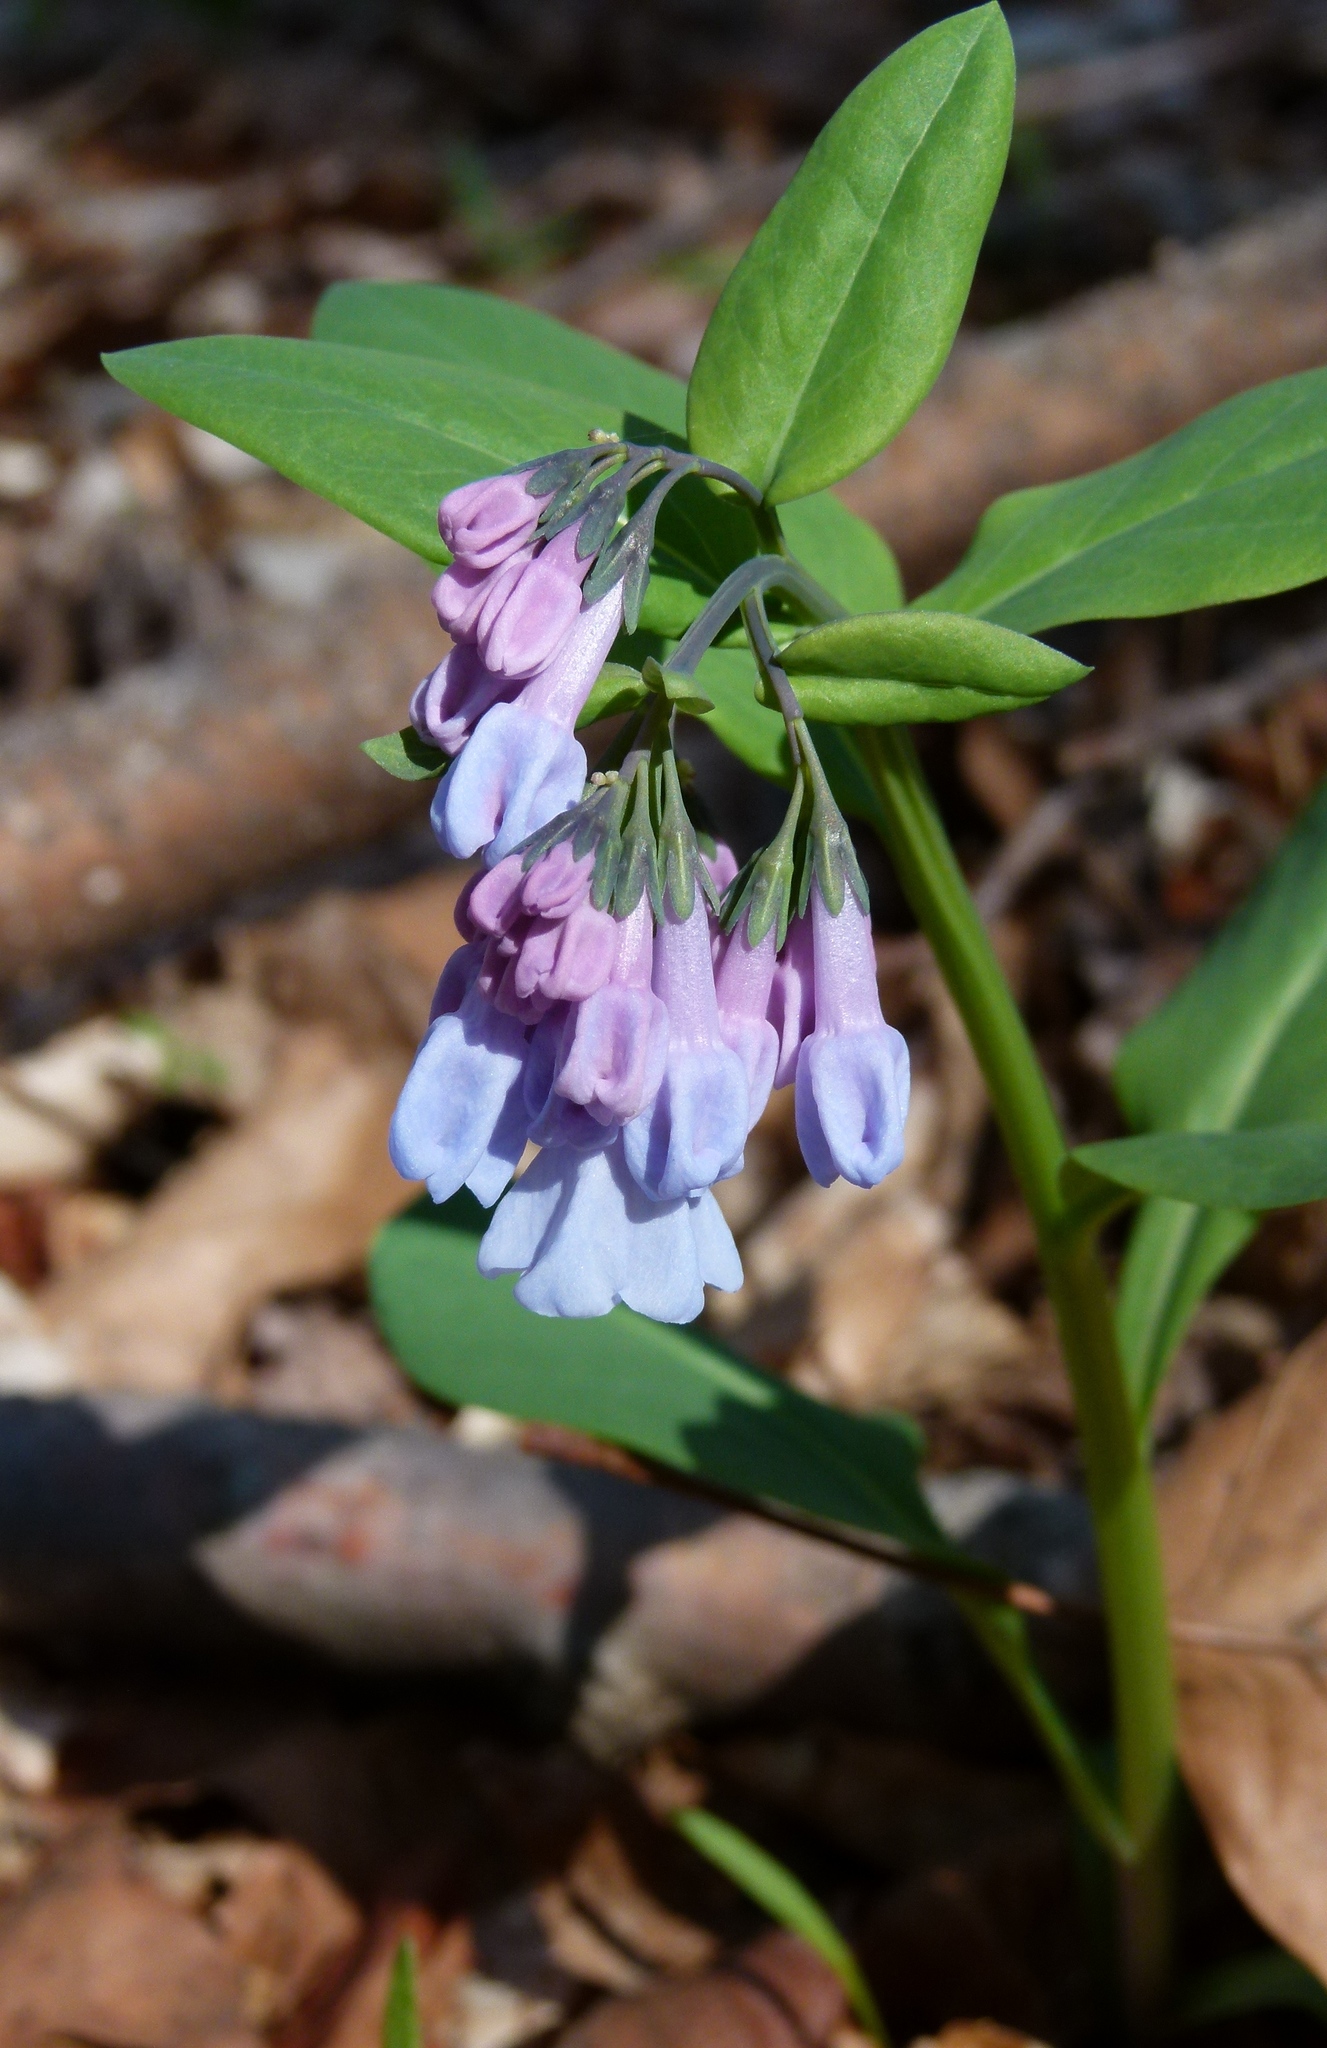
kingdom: Plantae
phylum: Tracheophyta
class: Magnoliopsida
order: Boraginales
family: Boraginaceae
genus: Mertensia
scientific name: Mertensia virginica
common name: Virginia bluebells
